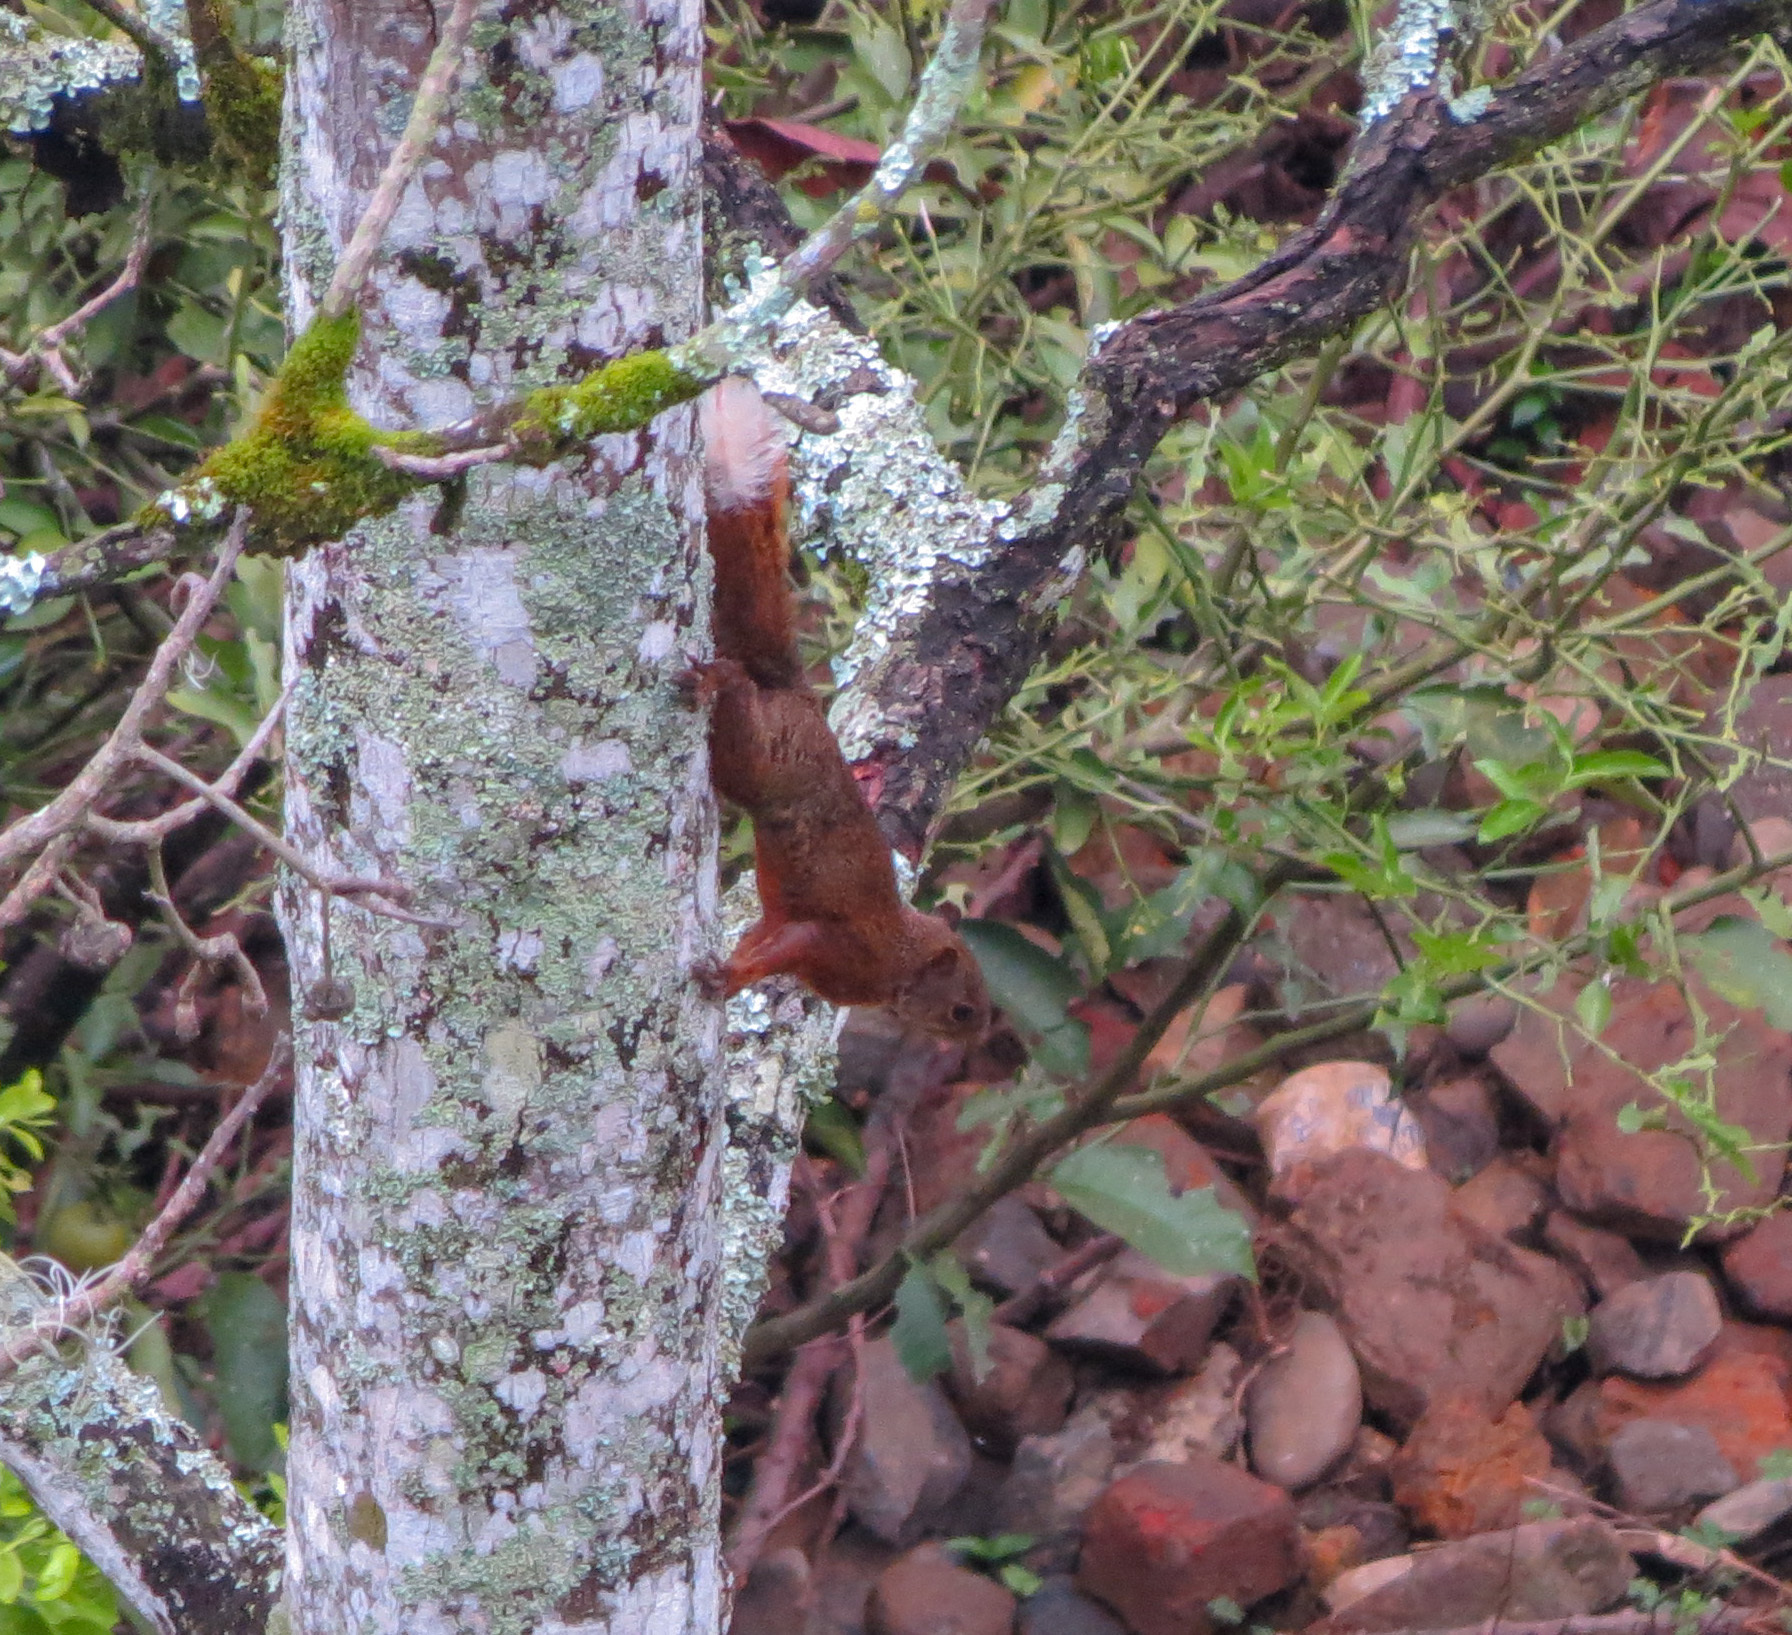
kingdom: Animalia
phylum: Chordata
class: Mammalia
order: Rodentia
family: Sciuridae
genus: Sciurus
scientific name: Sciurus granatensis
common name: Red-tailed squirrel
